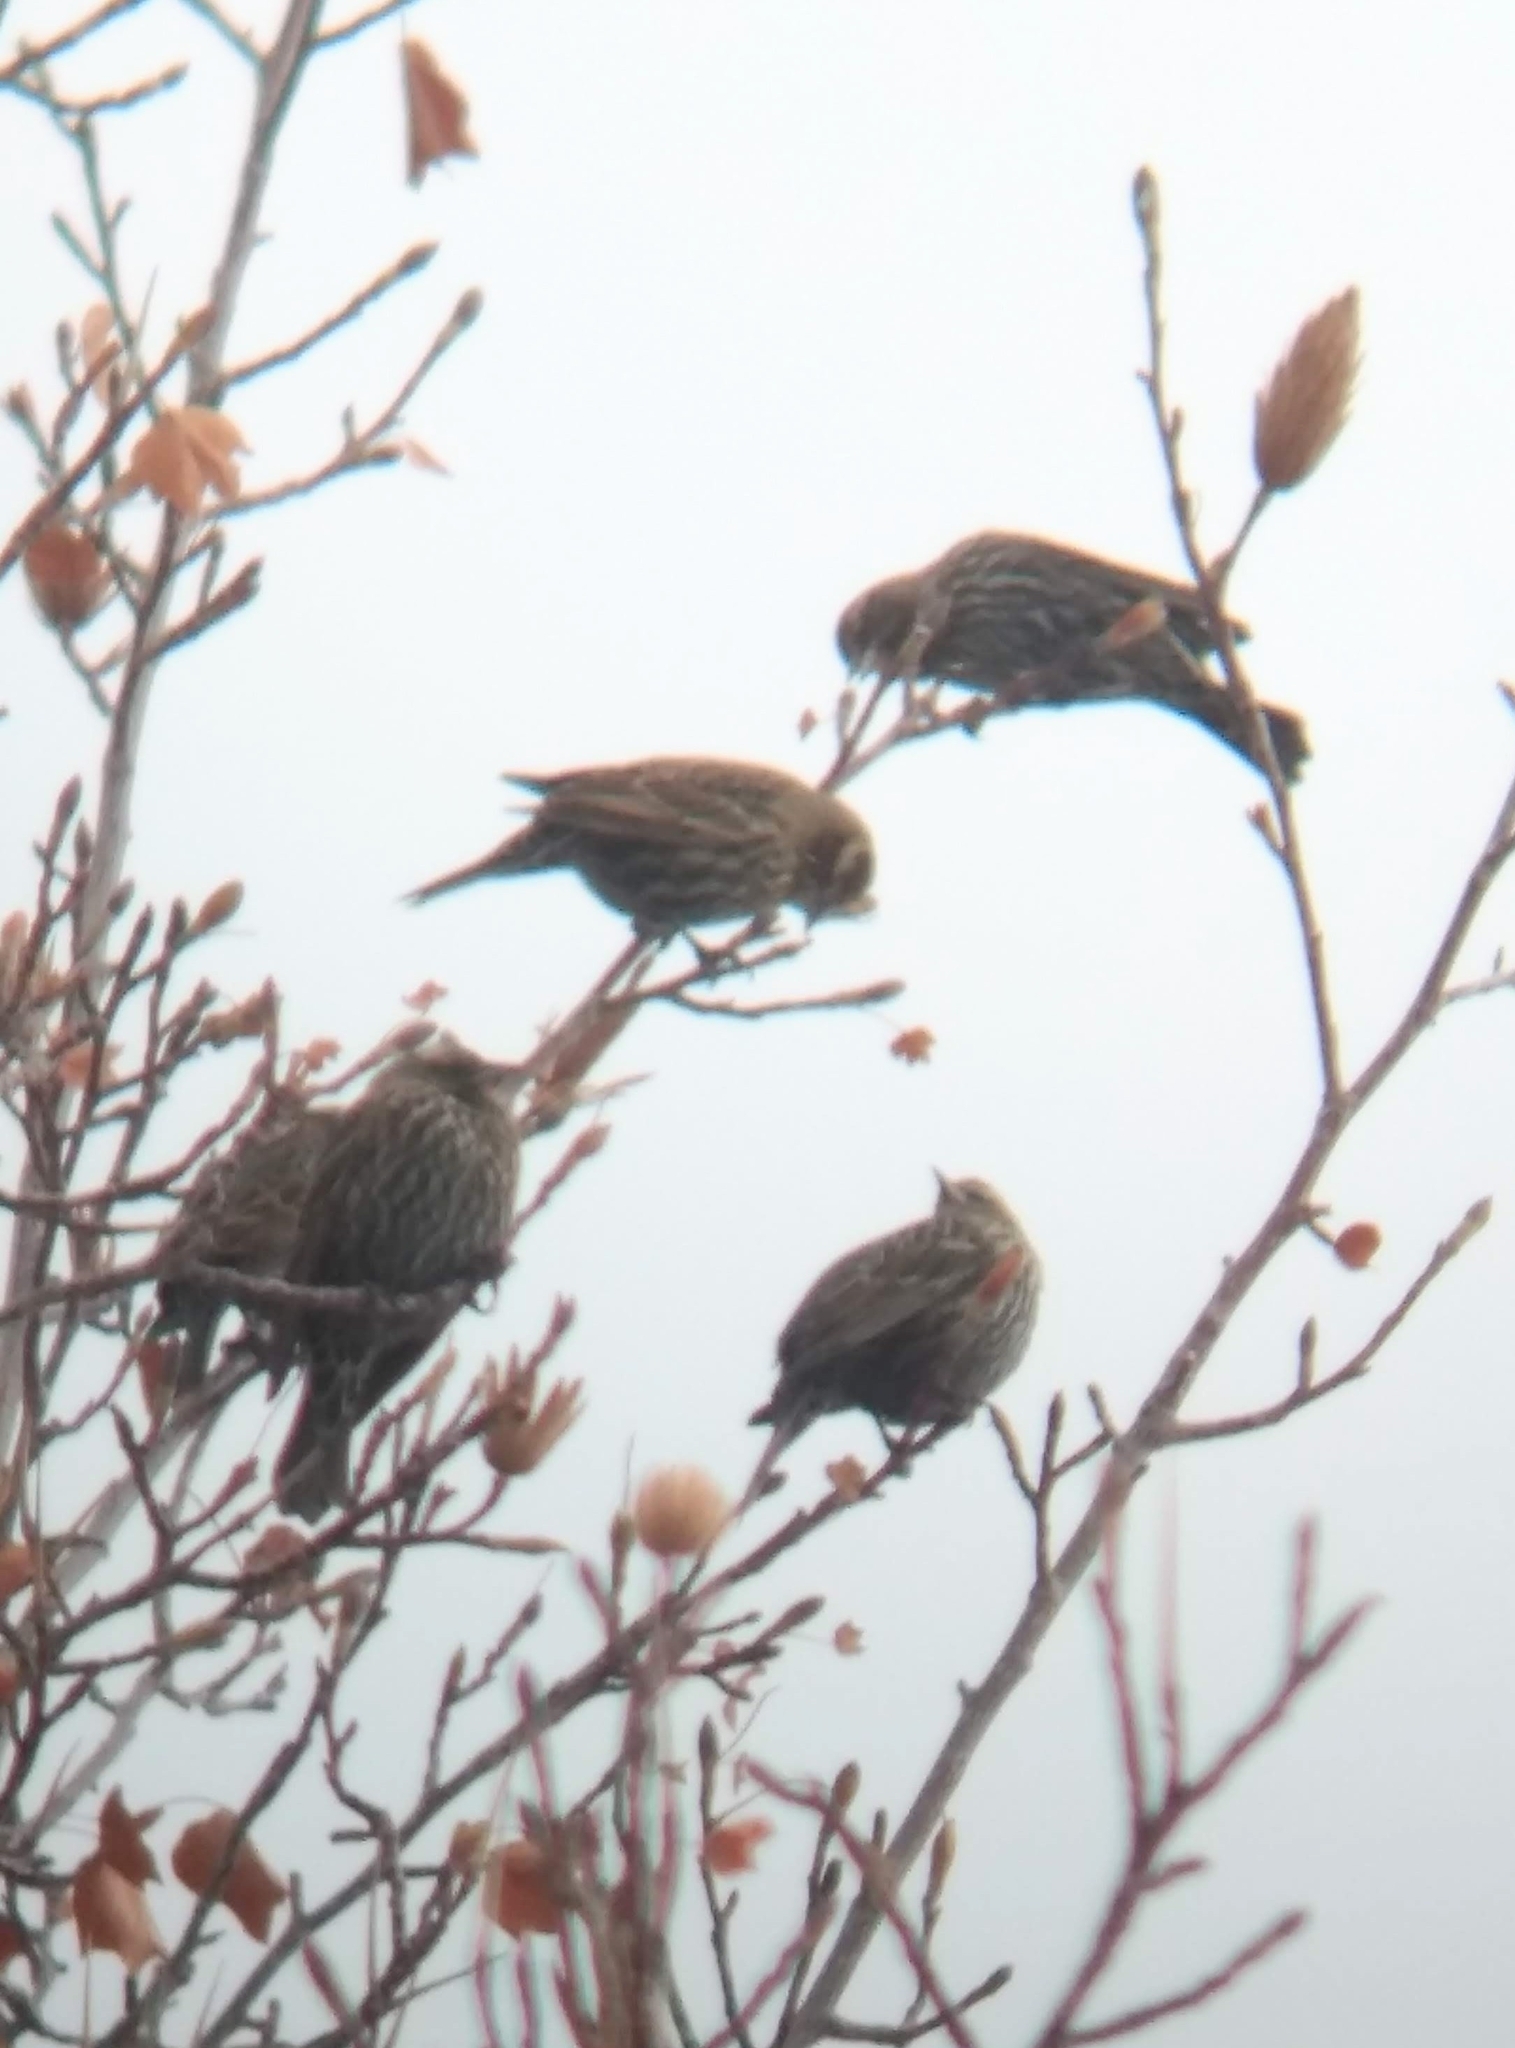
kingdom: Animalia
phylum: Chordata
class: Aves
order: Passeriformes
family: Icteridae
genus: Agelaius
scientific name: Agelaius phoeniceus
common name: Red-winged blackbird
